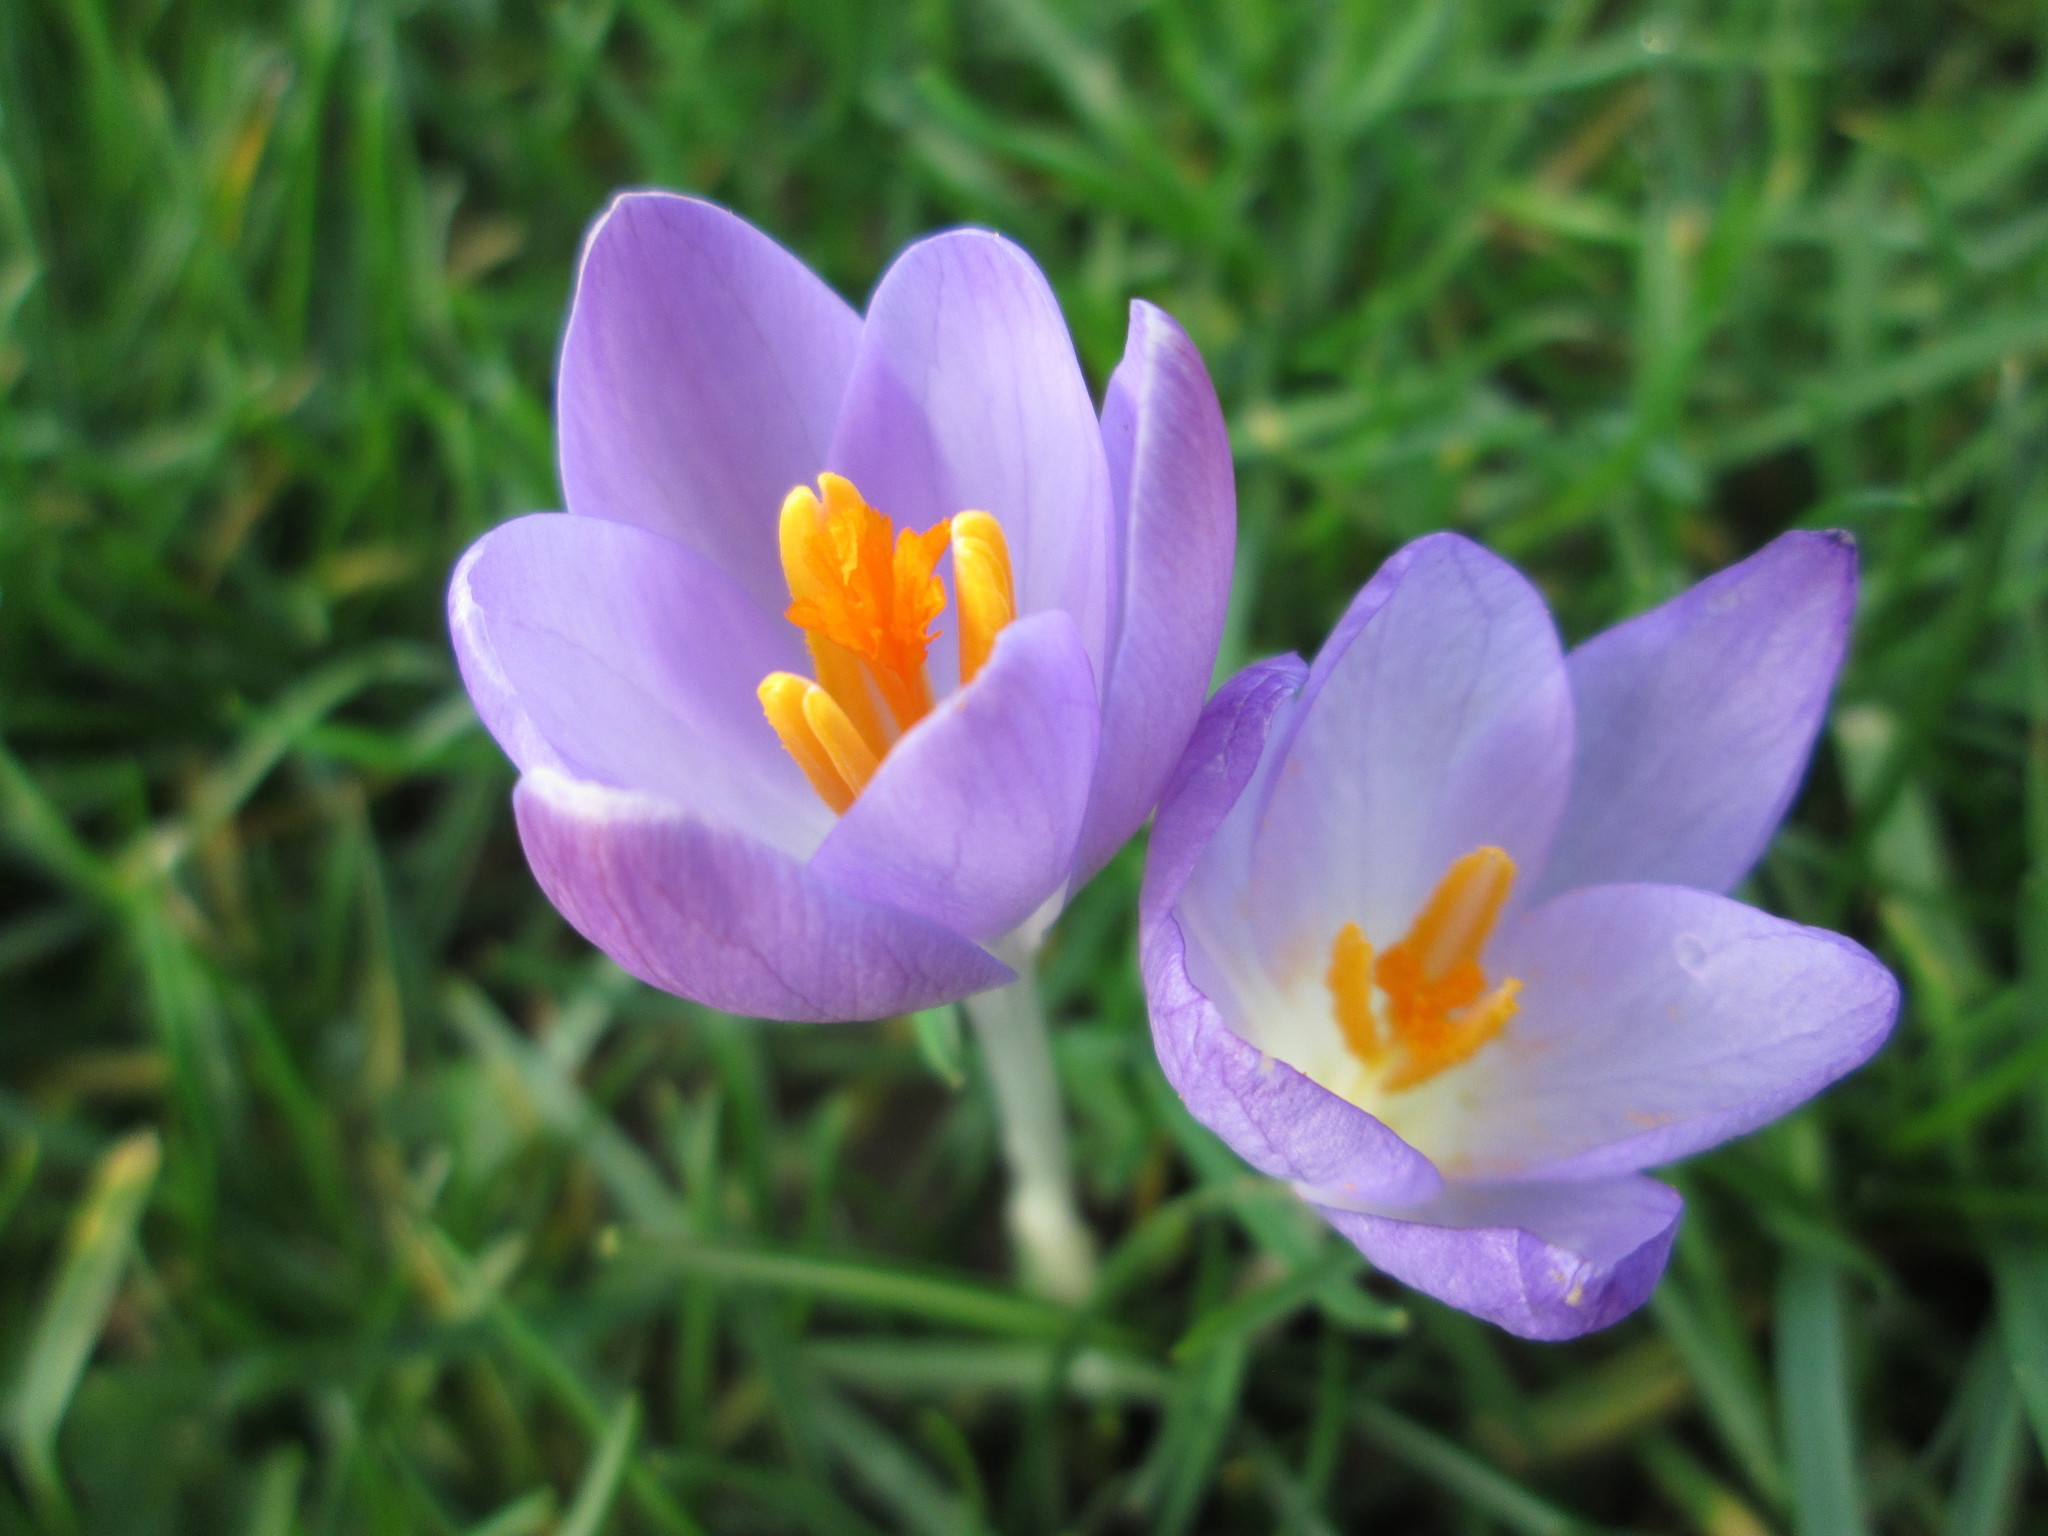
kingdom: Plantae
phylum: Tracheophyta
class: Liliopsida
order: Asparagales
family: Iridaceae
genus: Crocus
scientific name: Crocus tommasinianus
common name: Early crocus
